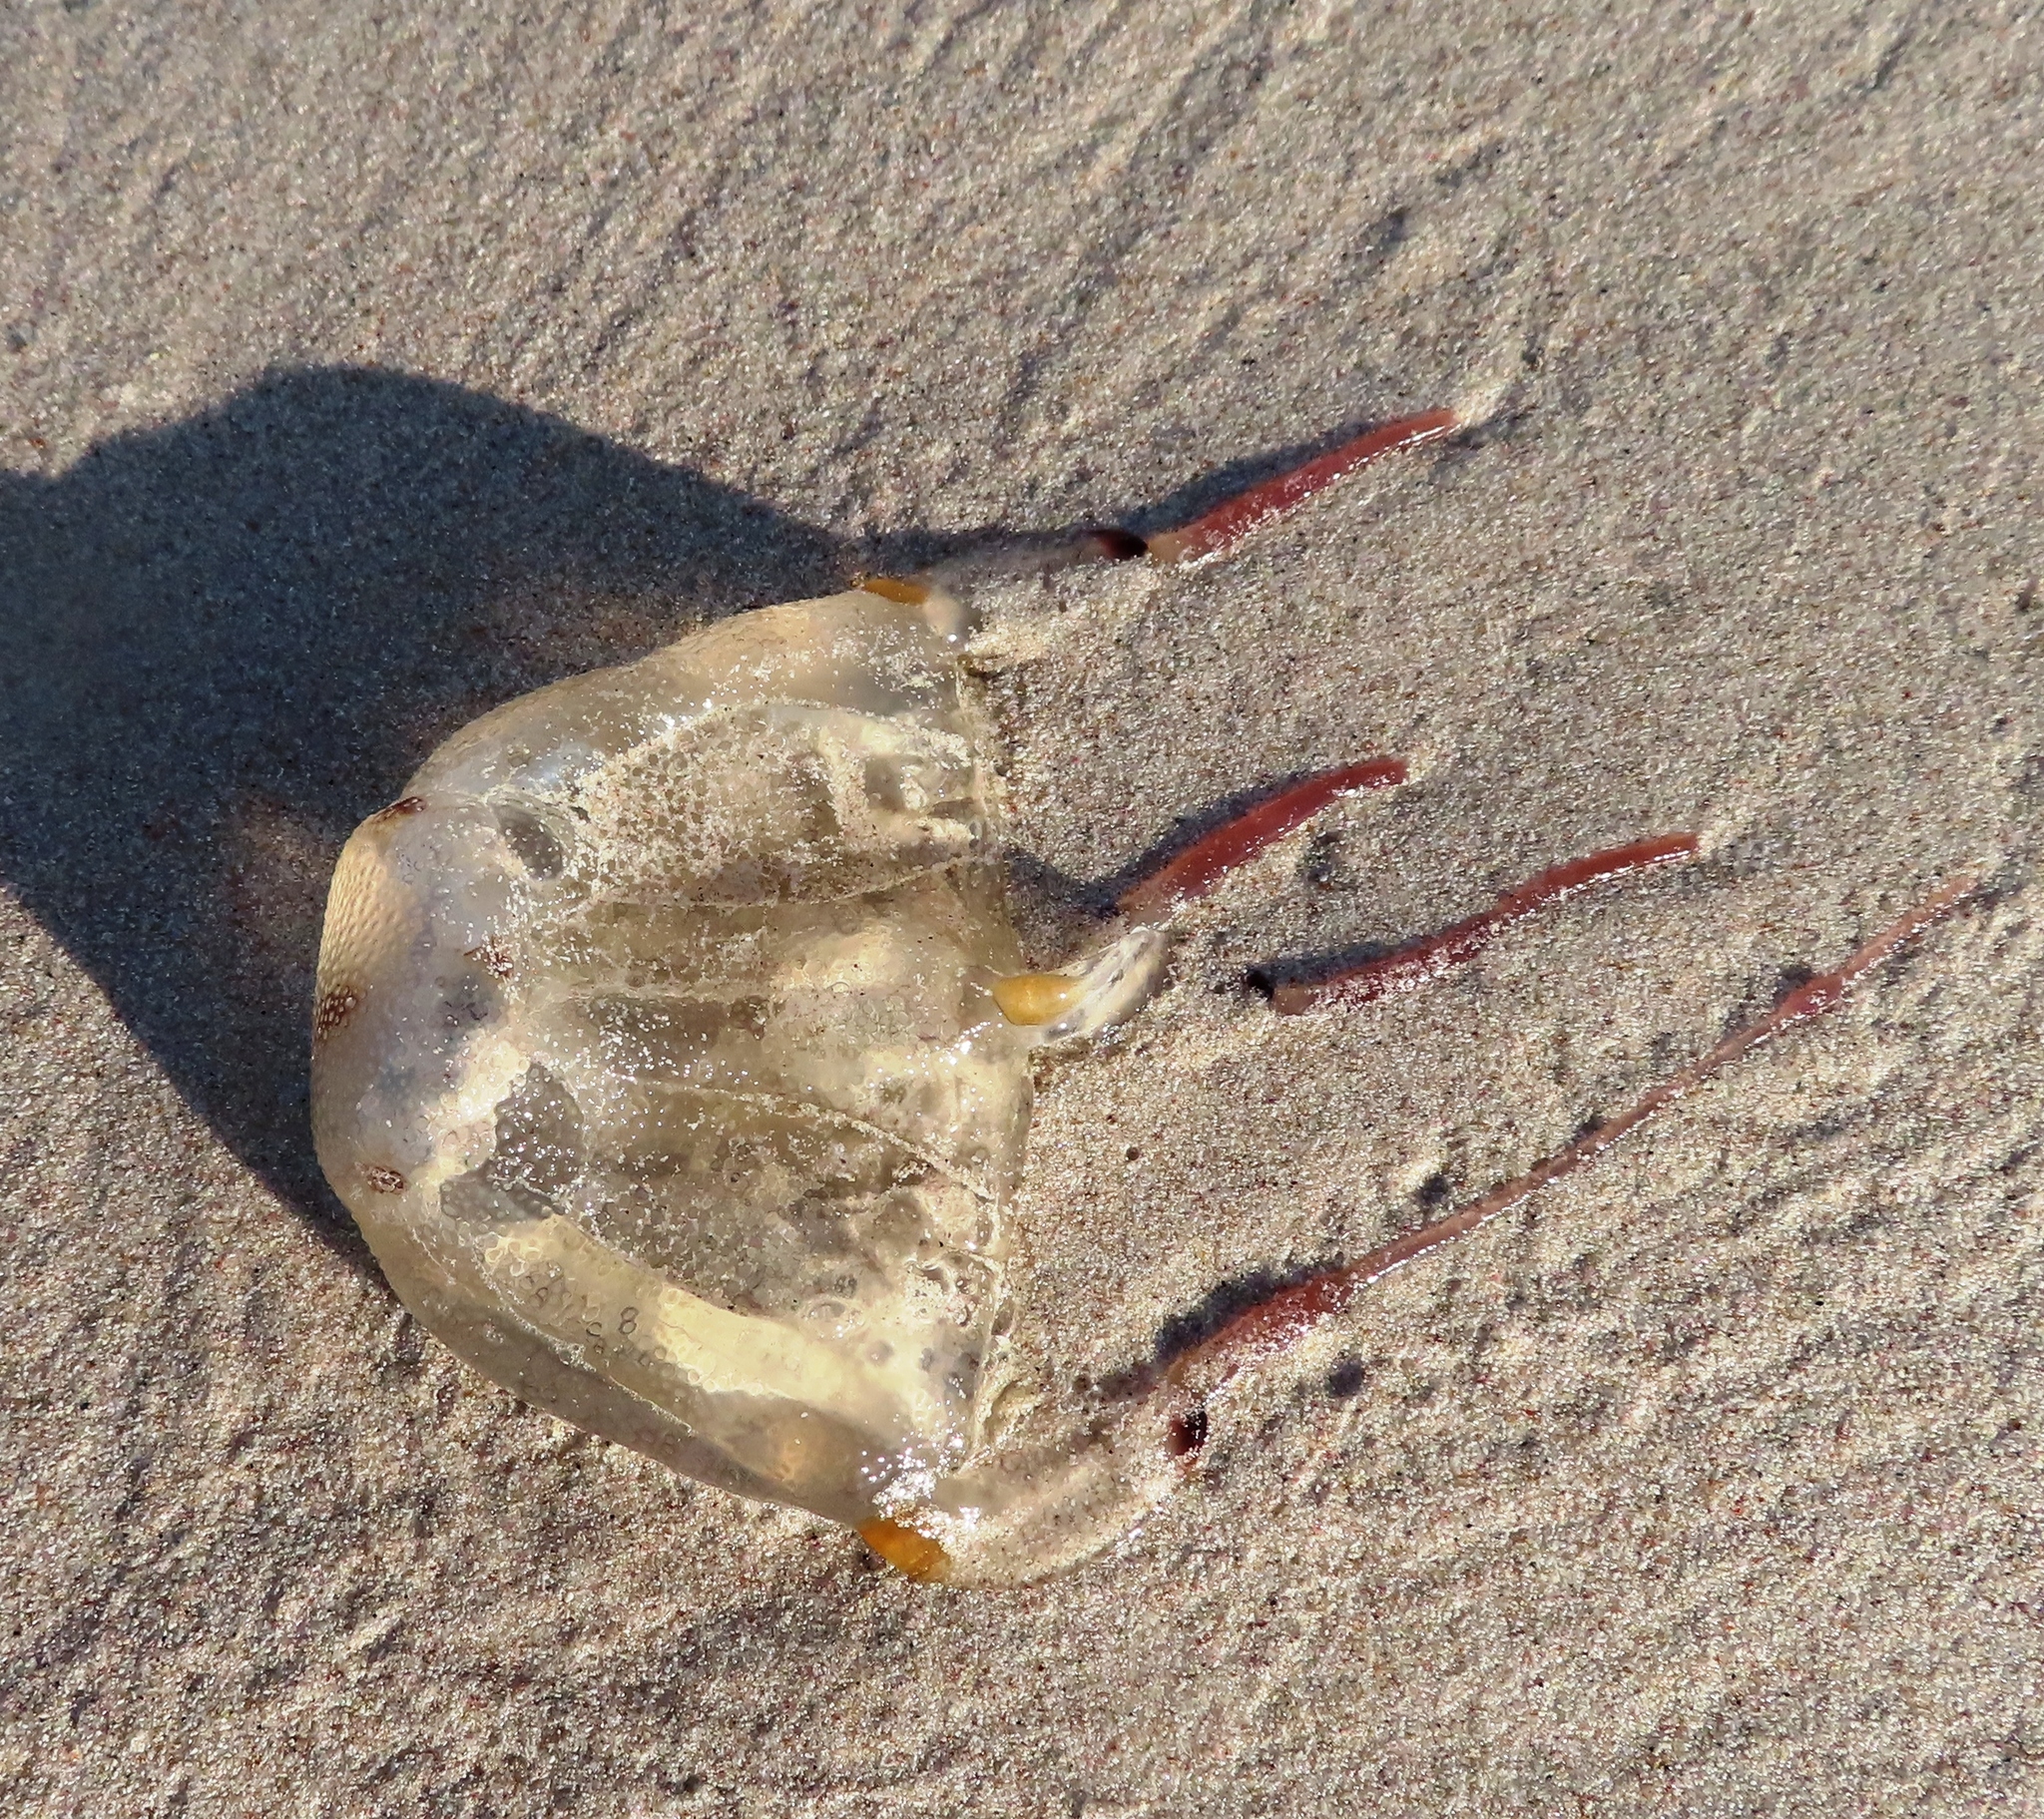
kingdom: Animalia
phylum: Cnidaria
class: Cubozoa
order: Carybdeida
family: Carybdeidae
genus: Carybdea
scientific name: Carybdea murrayana
